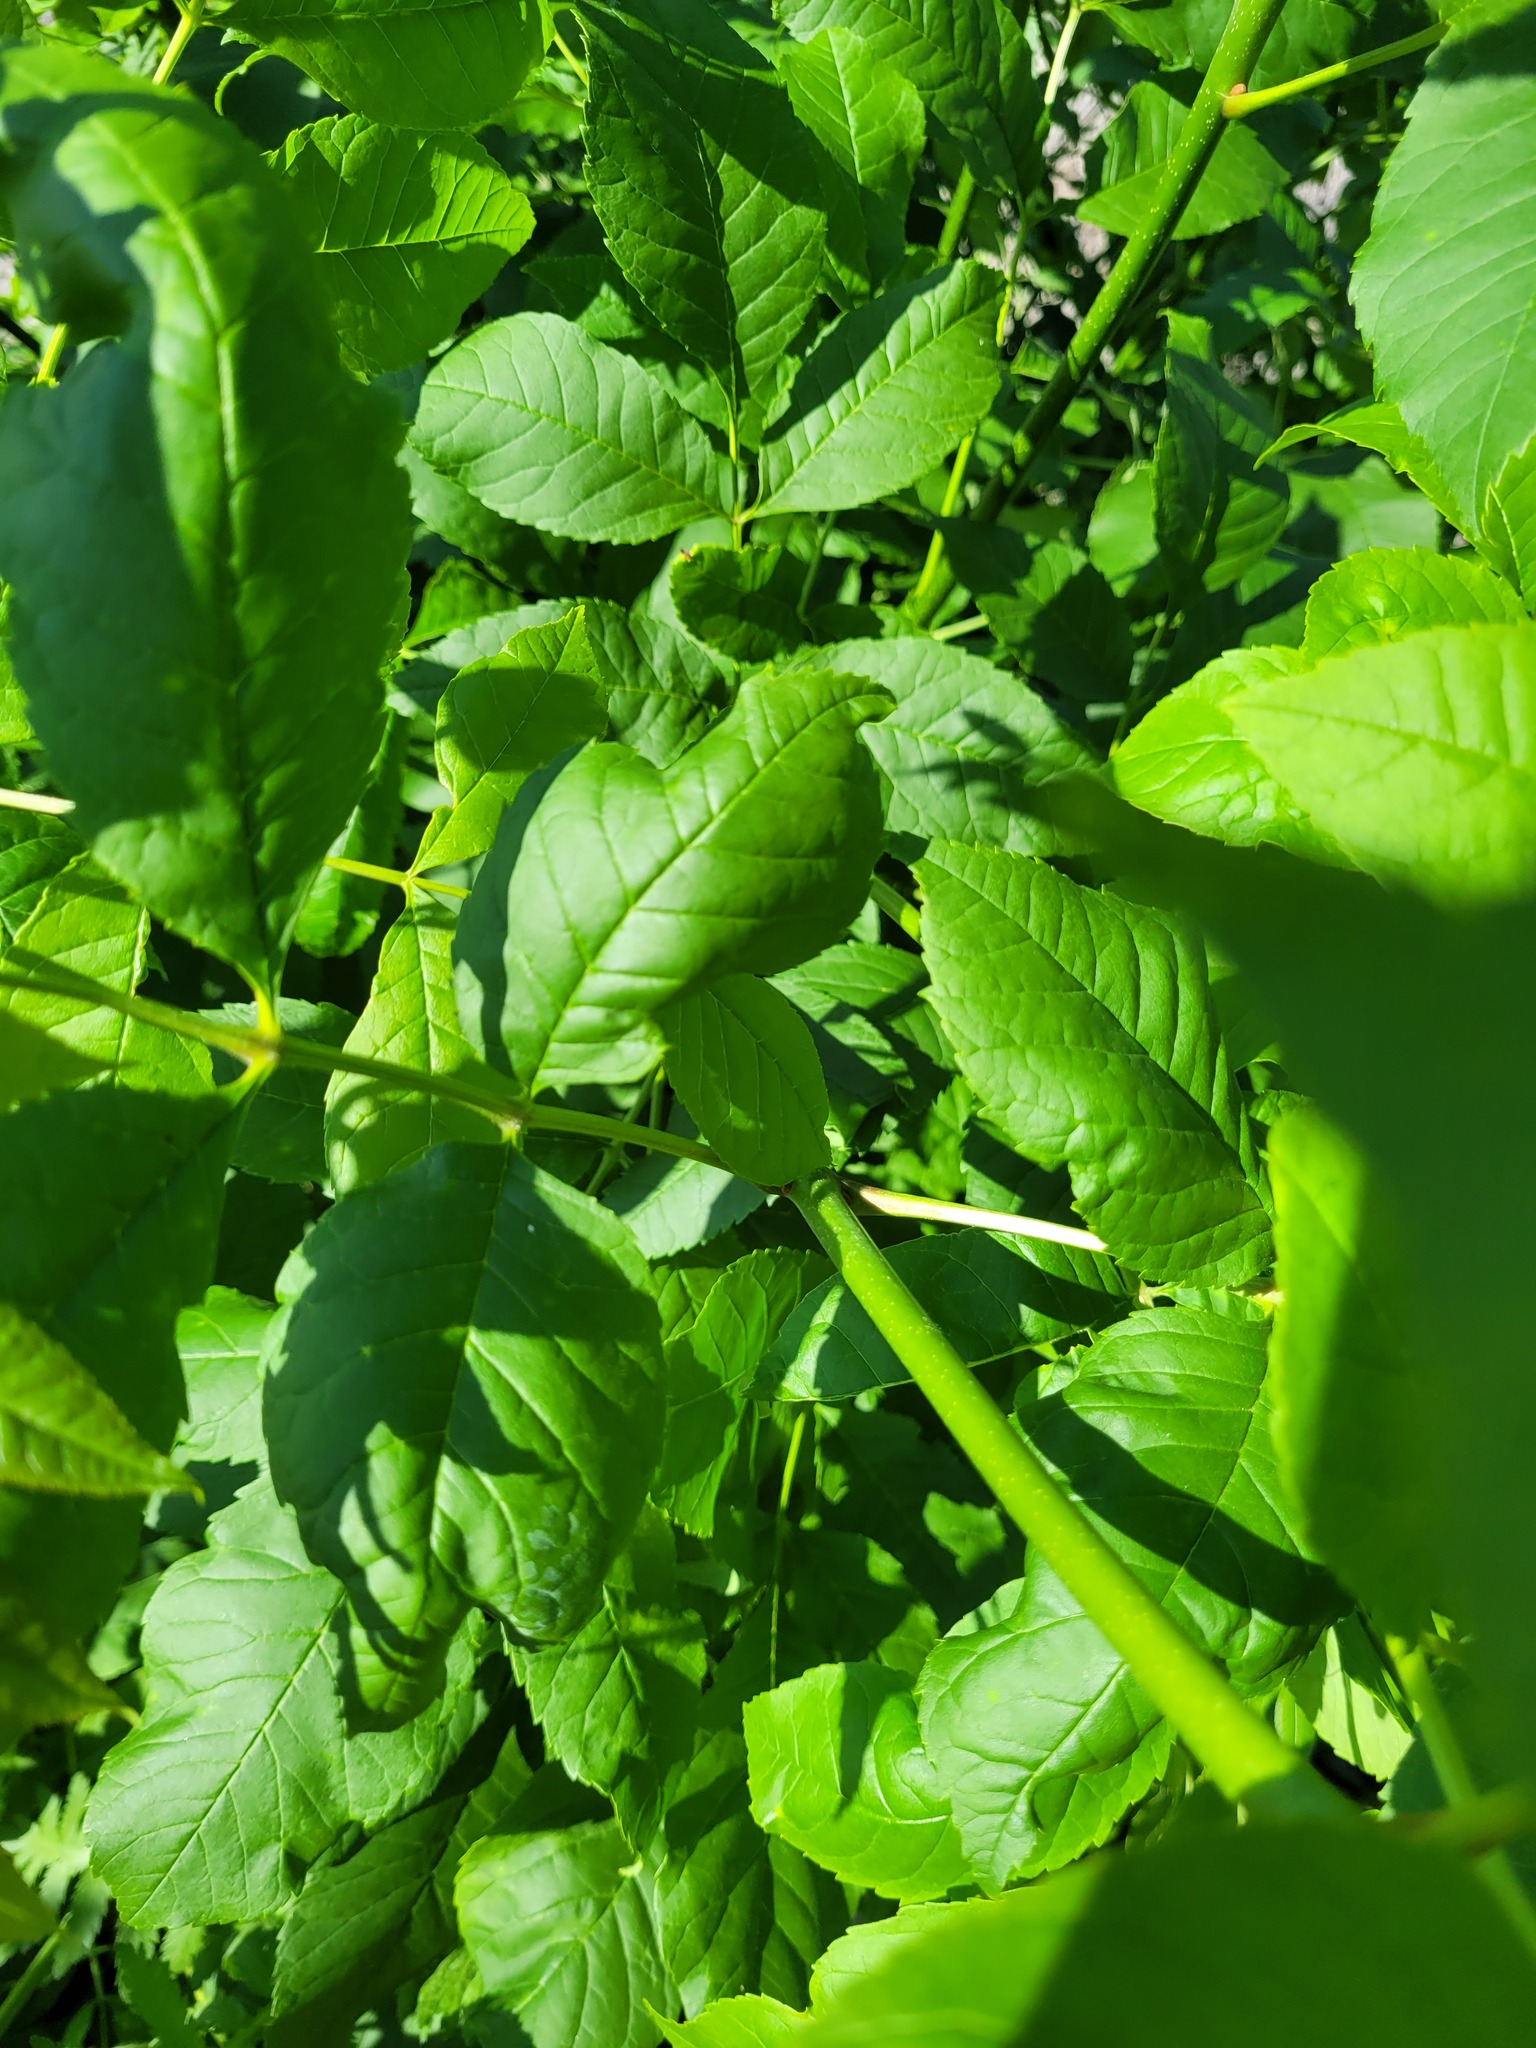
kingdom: Plantae
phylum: Tracheophyta
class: Magnoliopsida
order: Lamiales
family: Oleaceae
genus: Fraxinus
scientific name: Fraxinus pennsylvanica
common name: Green ash
